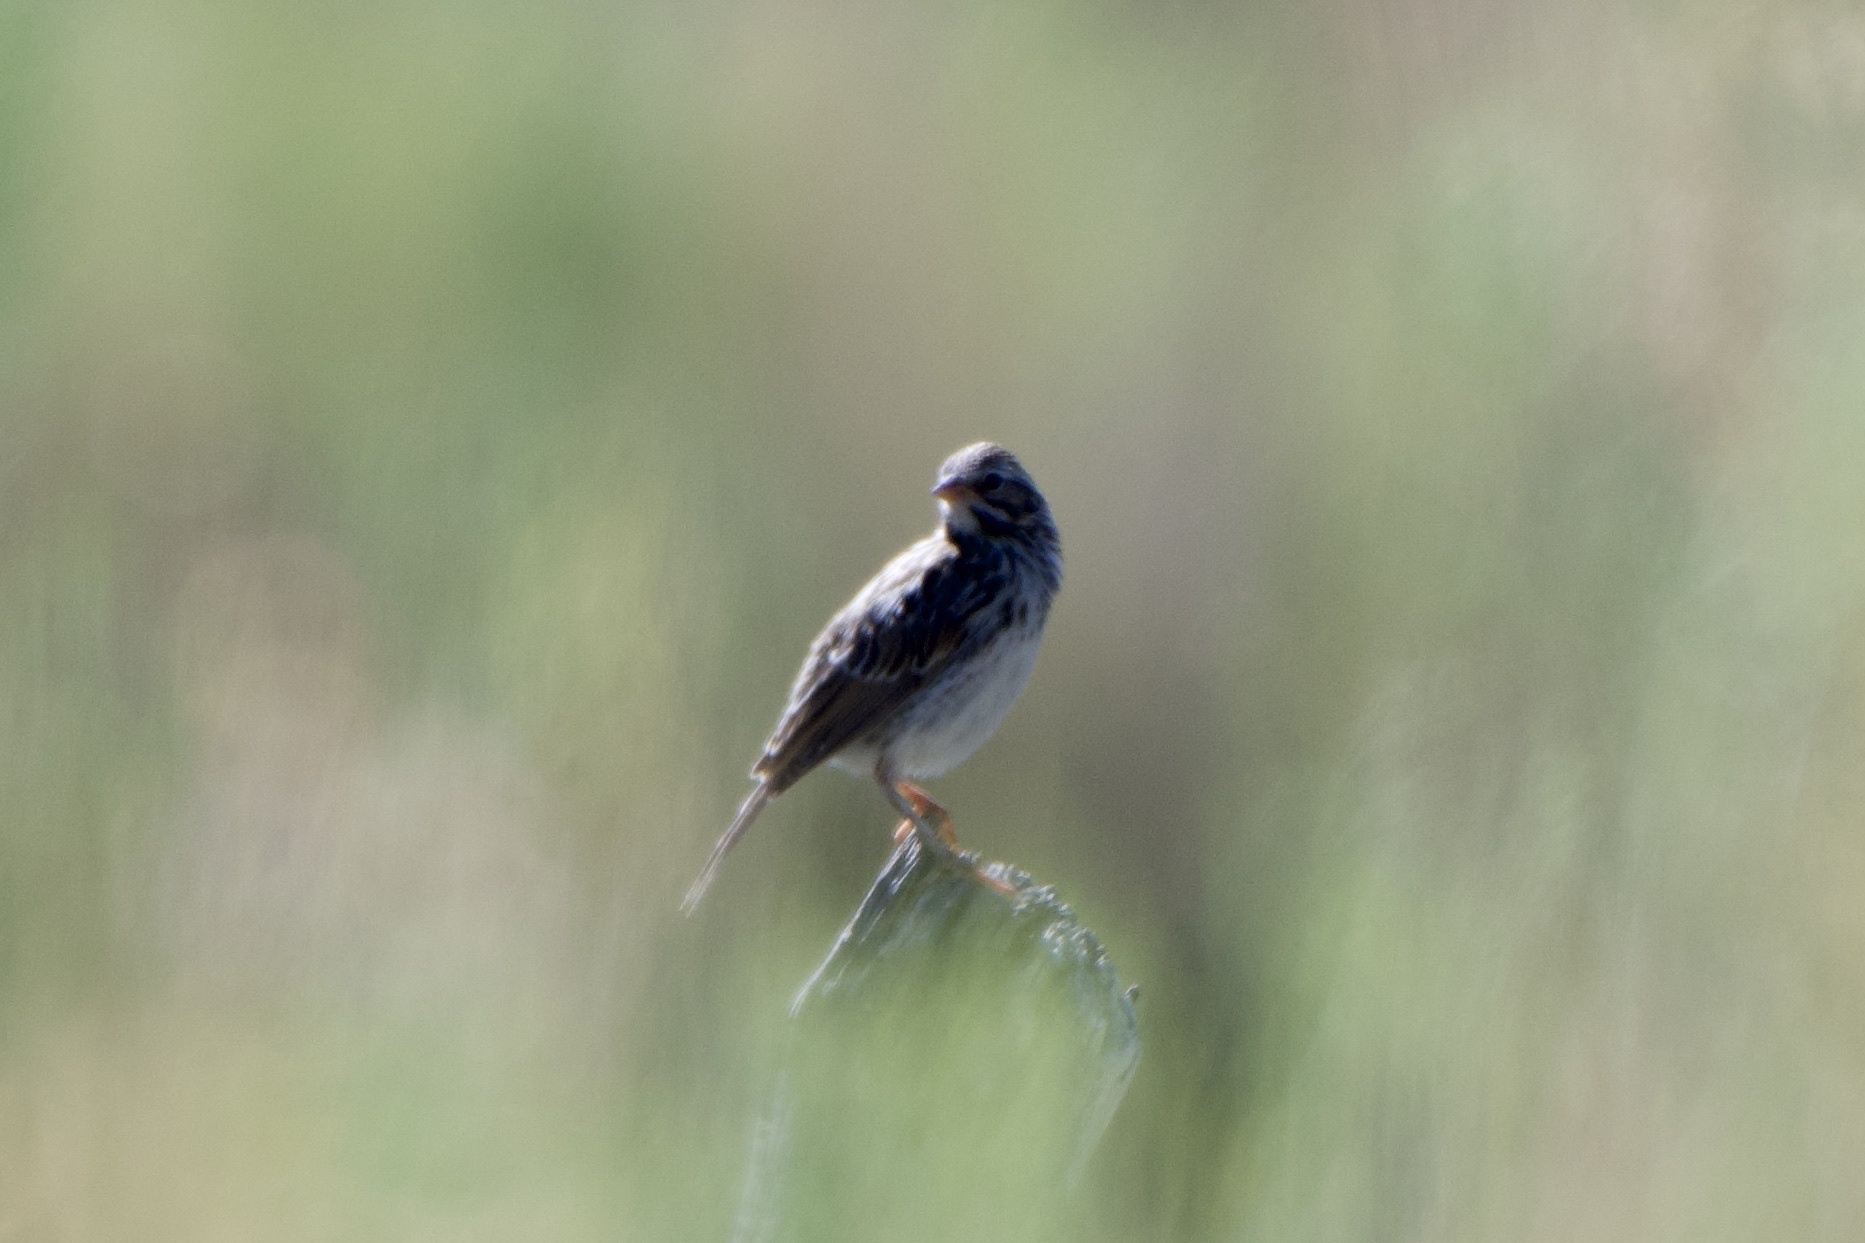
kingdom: Animalia
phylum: Chordata
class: Aves
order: Passeriformes
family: Passerellidae
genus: Passerculus
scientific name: Passerculus sandwichensis
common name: Savannah sparrow
